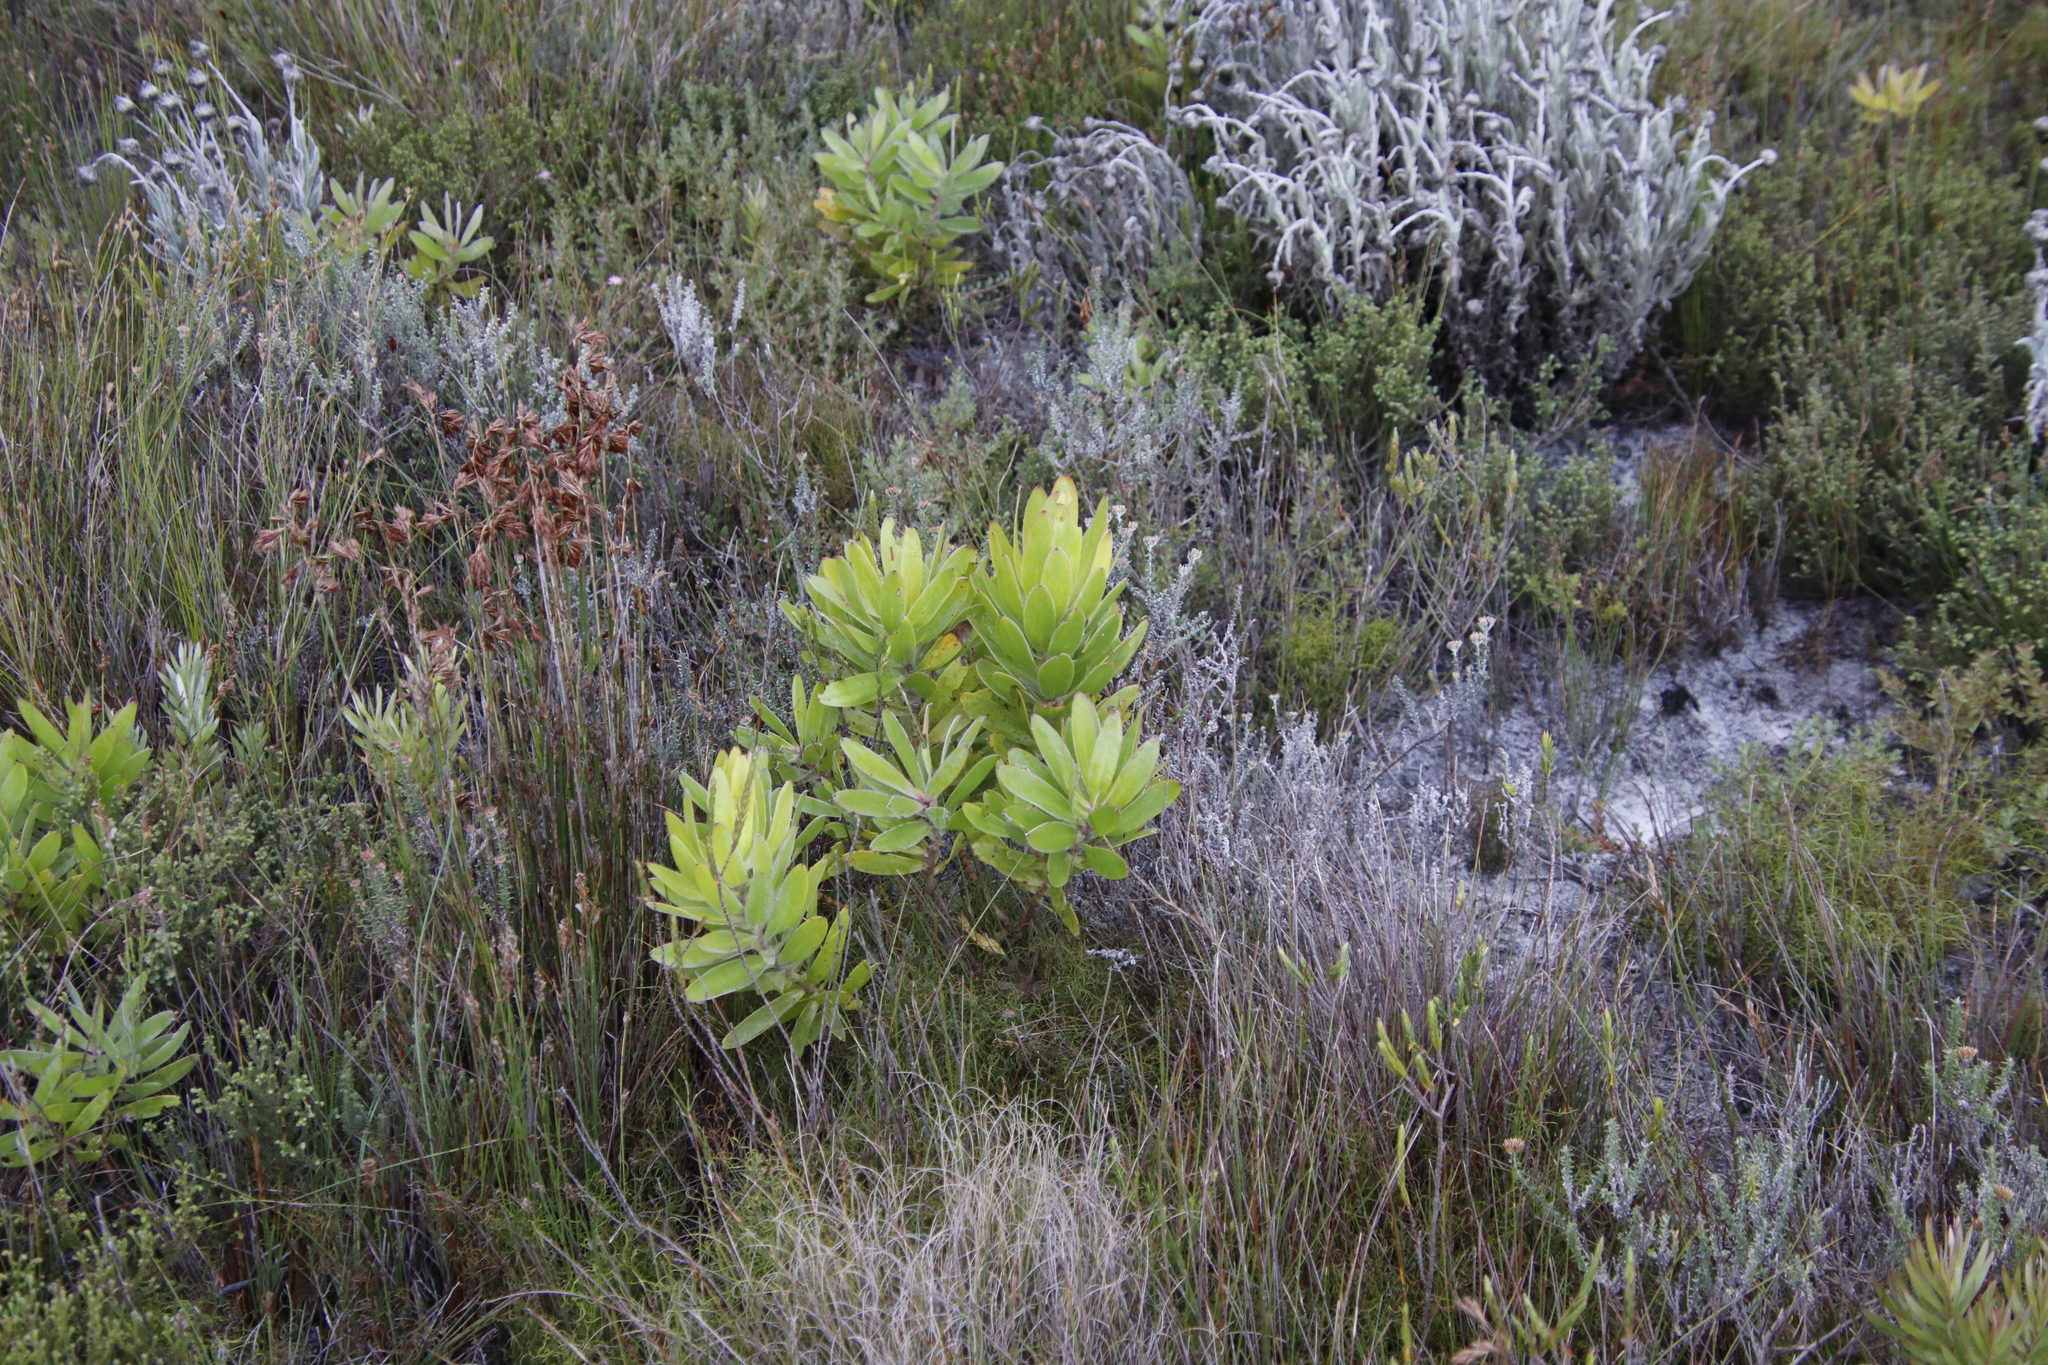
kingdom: Plantae
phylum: Tracheophyta
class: Magnoliopsida
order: Proteales
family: Proteaceae
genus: Leucadendron
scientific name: Leucadendron laureolum
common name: Golden sunshinebush
